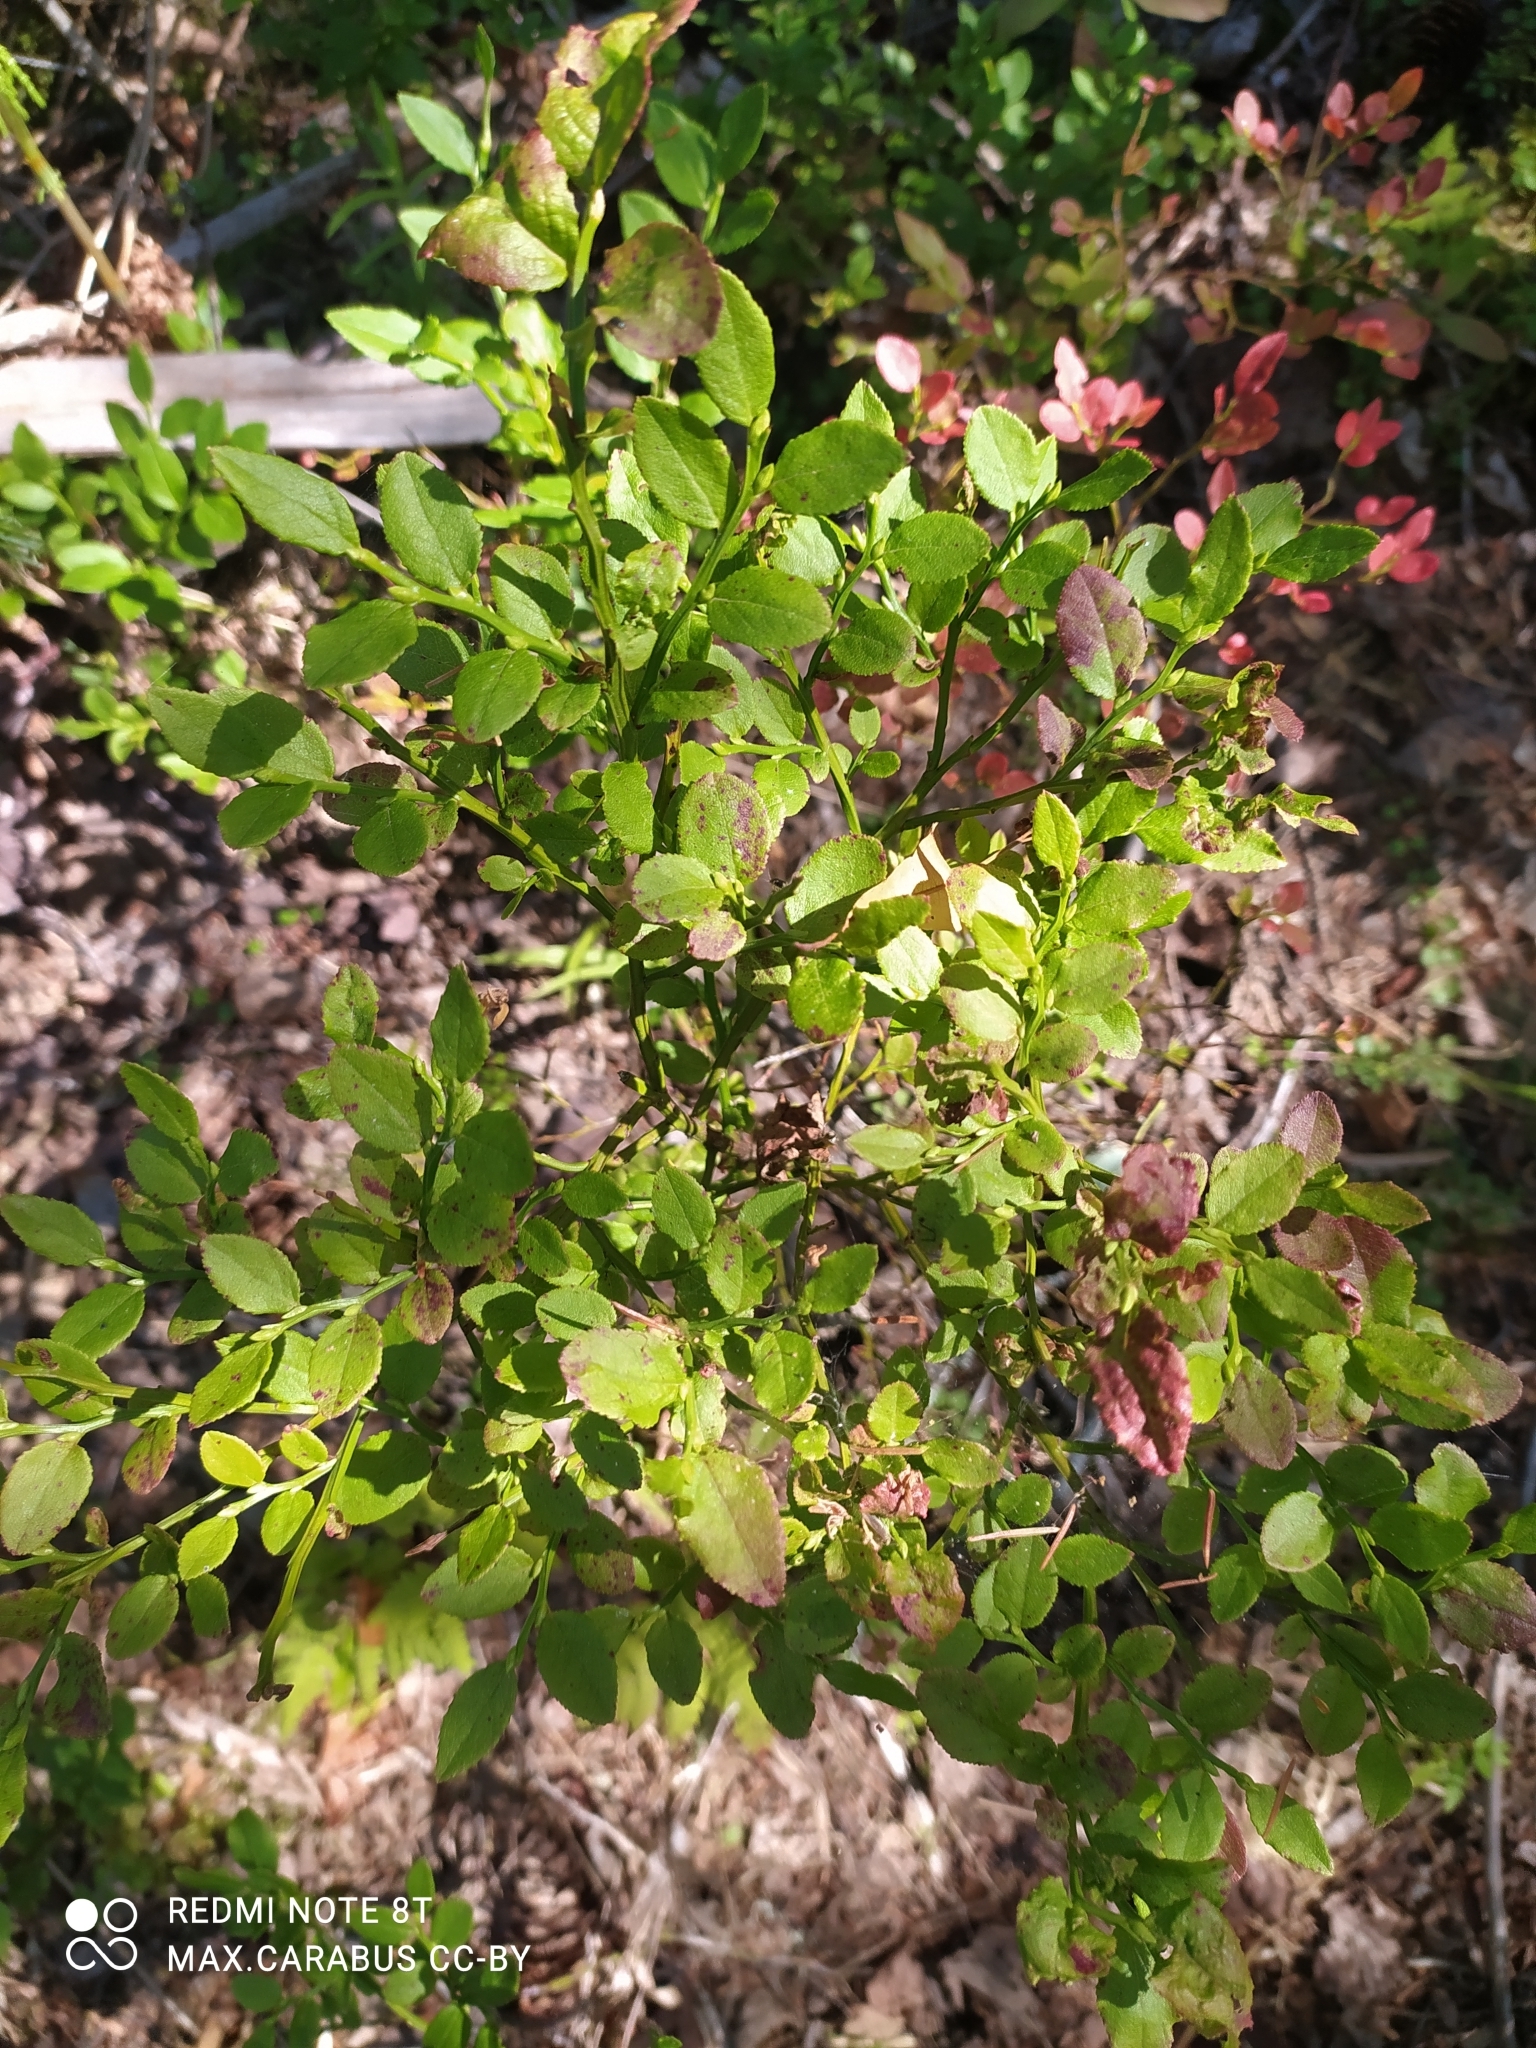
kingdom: Plantae
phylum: Tracheophyta
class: Magnoliopsida
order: Ericales
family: Ericaceae
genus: Vaccinium
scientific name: Vaccinium myrtillus
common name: Bilberry
